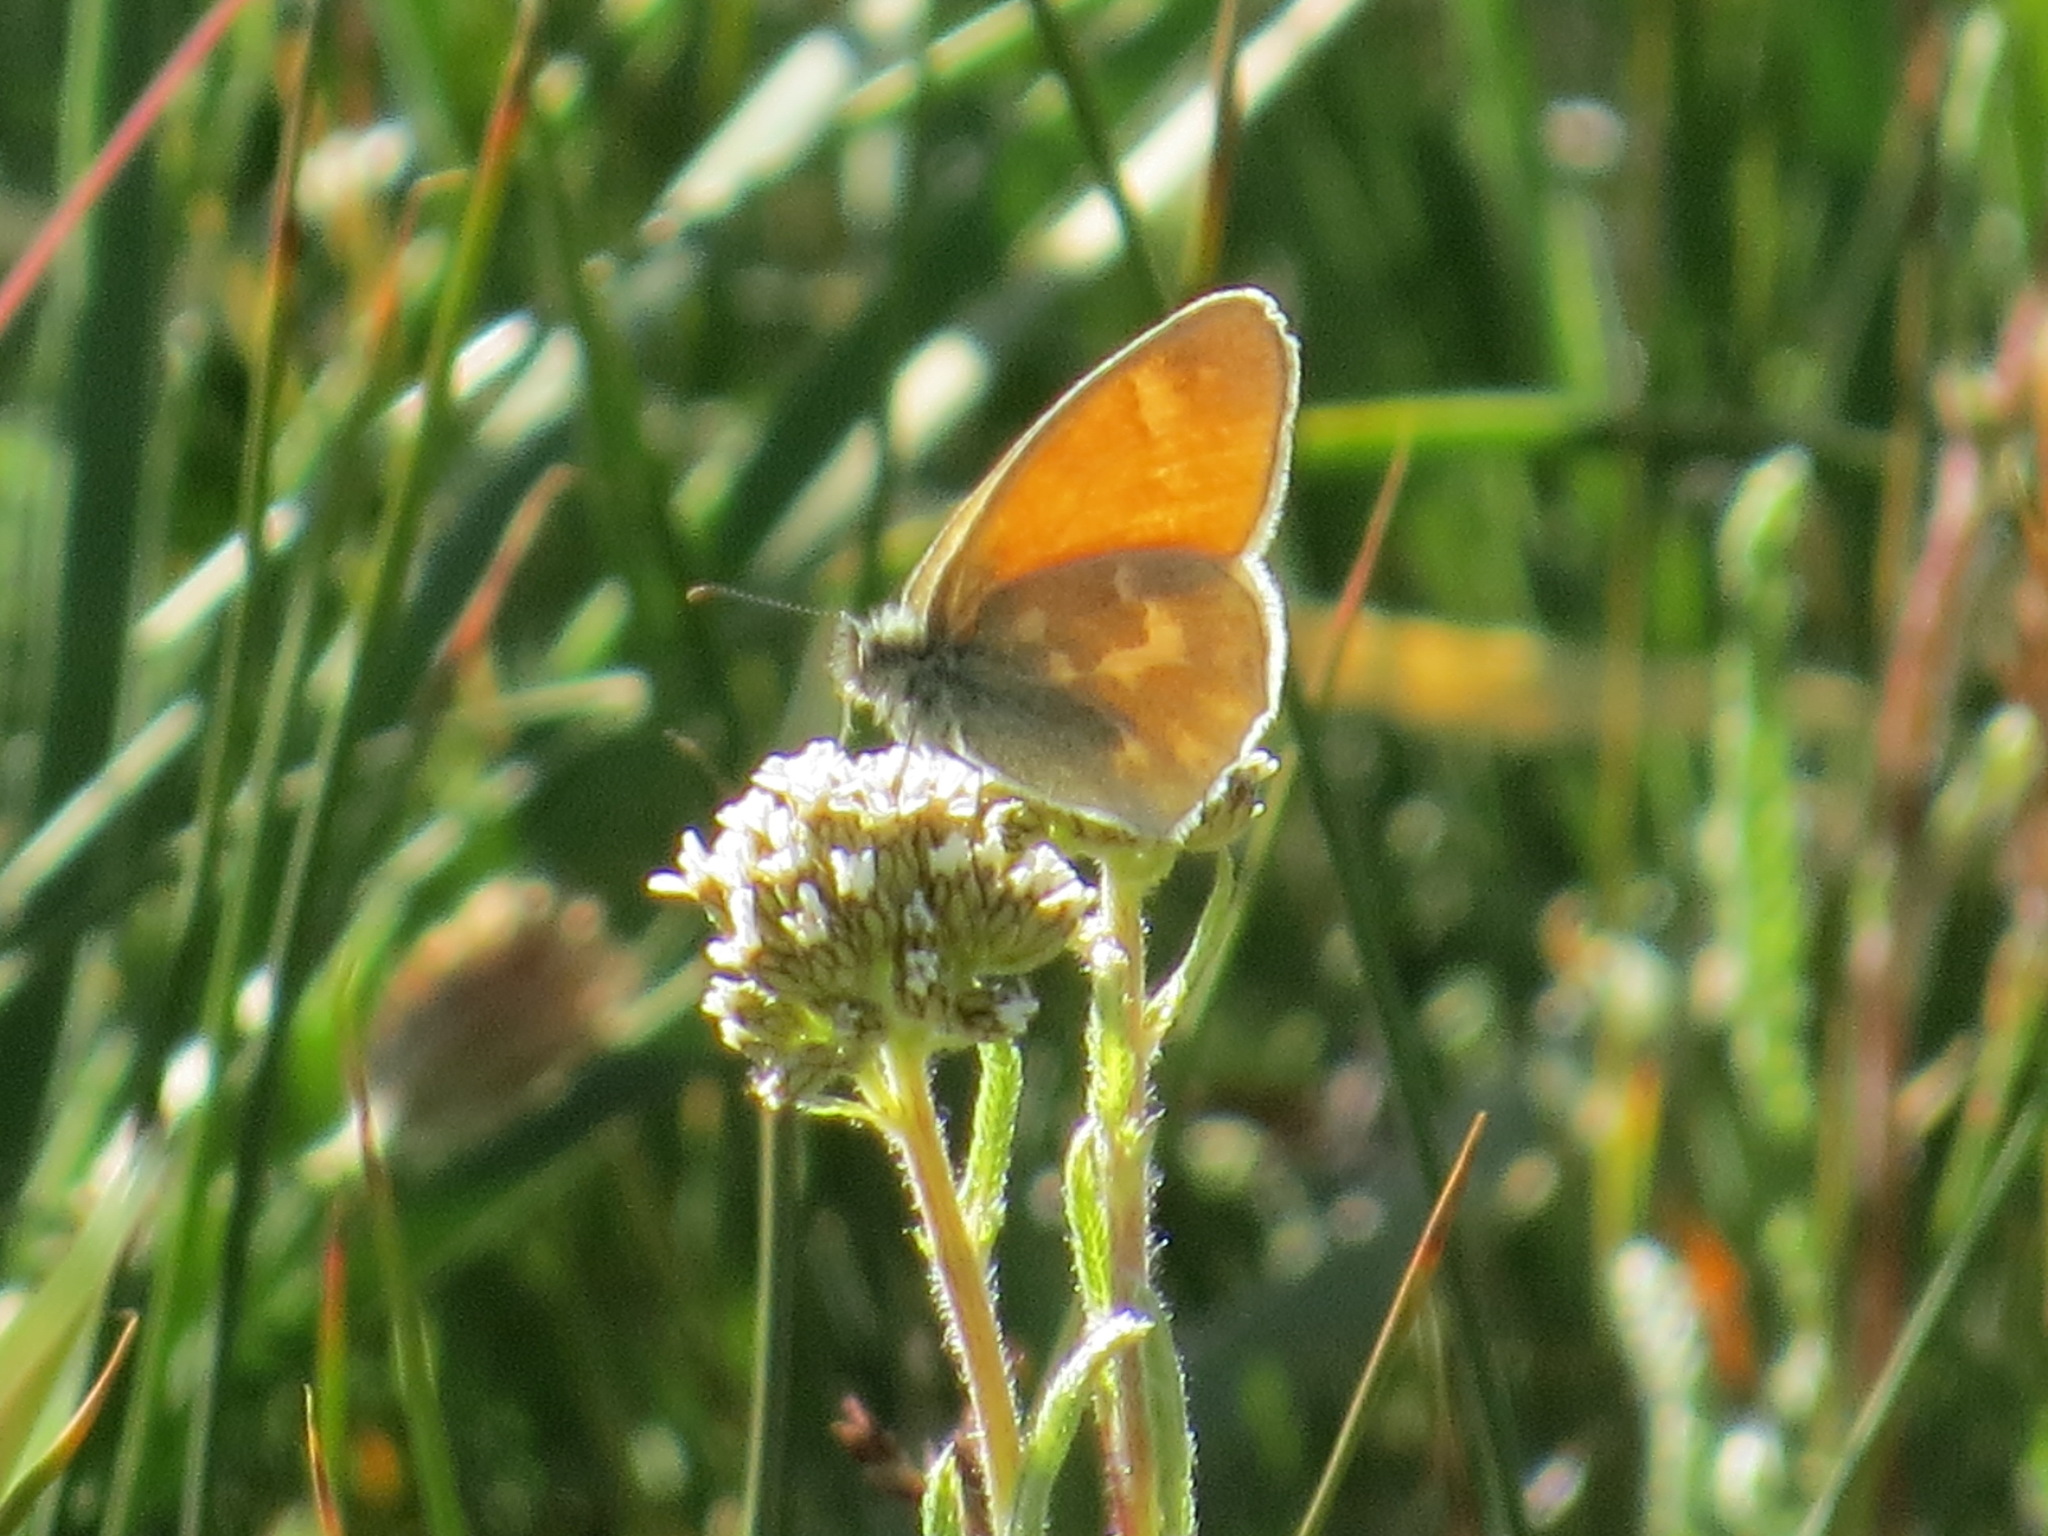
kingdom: Animalia
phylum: Arthropoda
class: Insecta
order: Lepidoptera
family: Nymphalidae
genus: Coenonympha
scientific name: Coenonympha california
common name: Common ringlet
